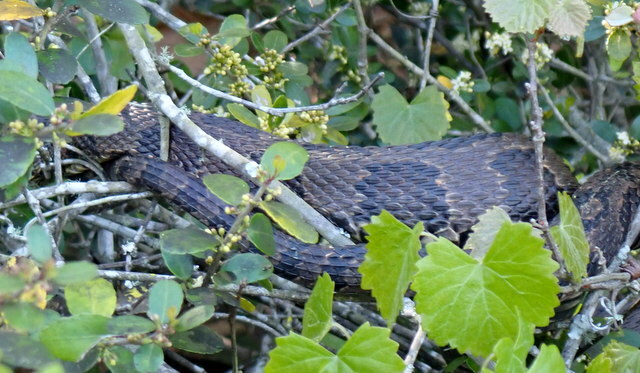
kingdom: Animalia
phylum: Chordata
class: Squamata
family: Colubridae
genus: Nerodia
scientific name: Nerodia taxispilota
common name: Brown water snake
